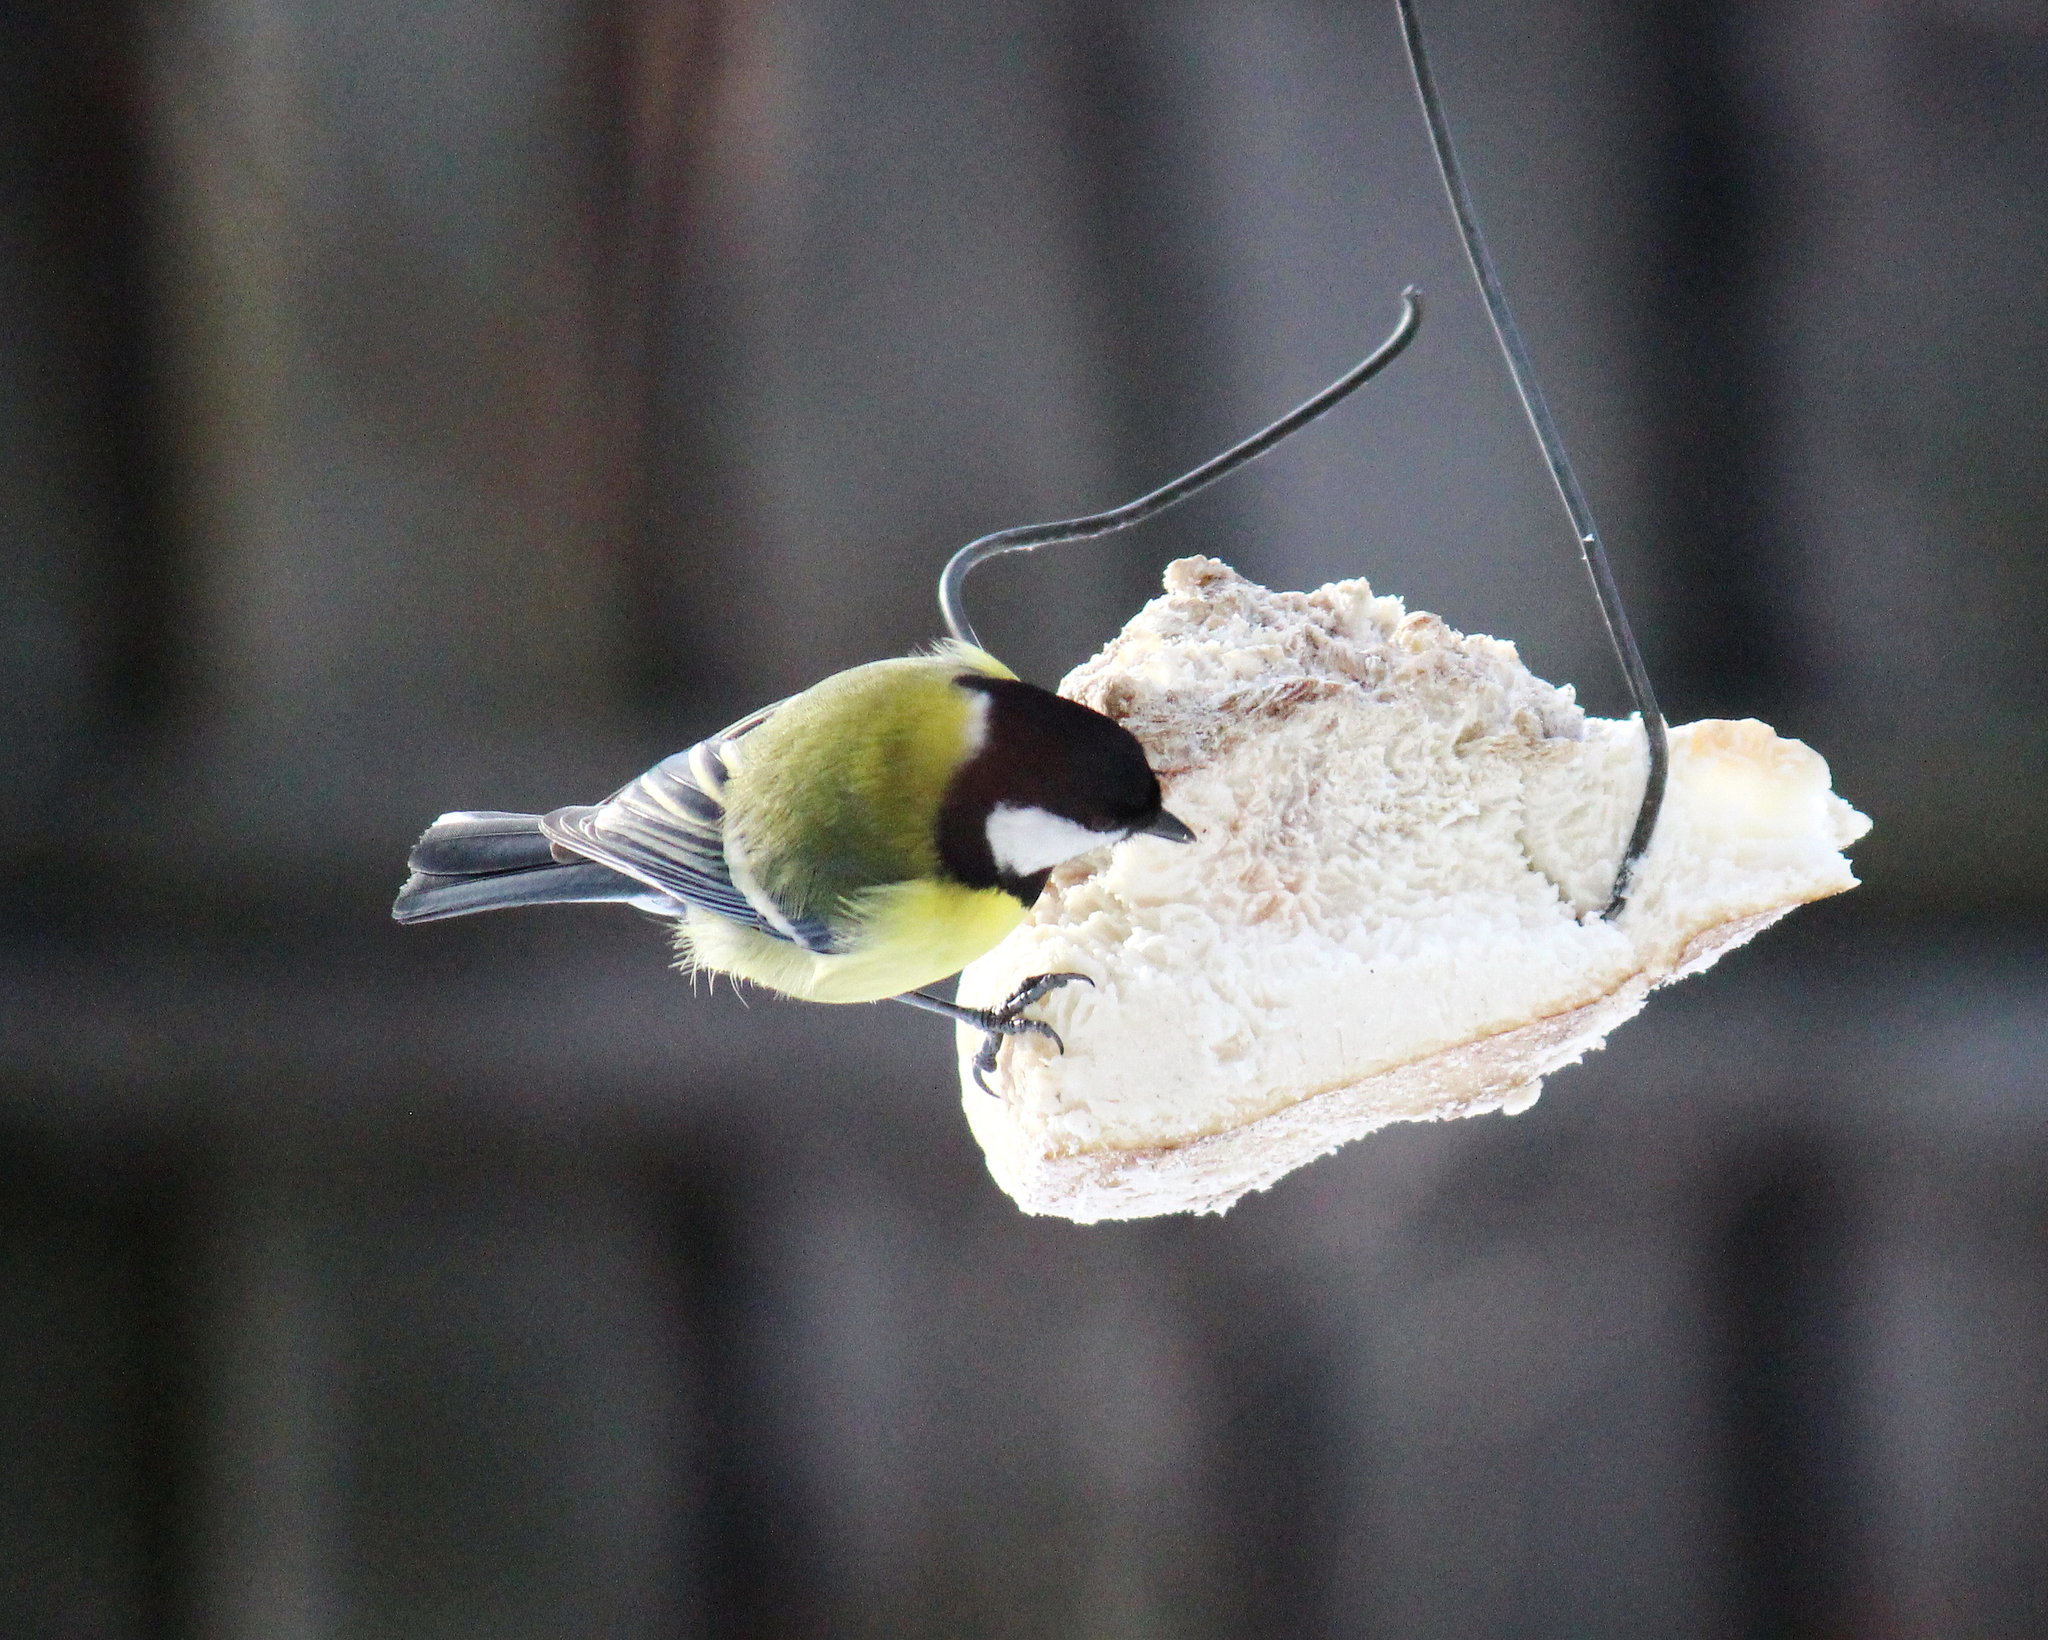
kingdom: Animalia
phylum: Chordata
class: Aves
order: Passeriformes
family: Paridae
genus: Parus
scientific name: Parus major
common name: Great tit
